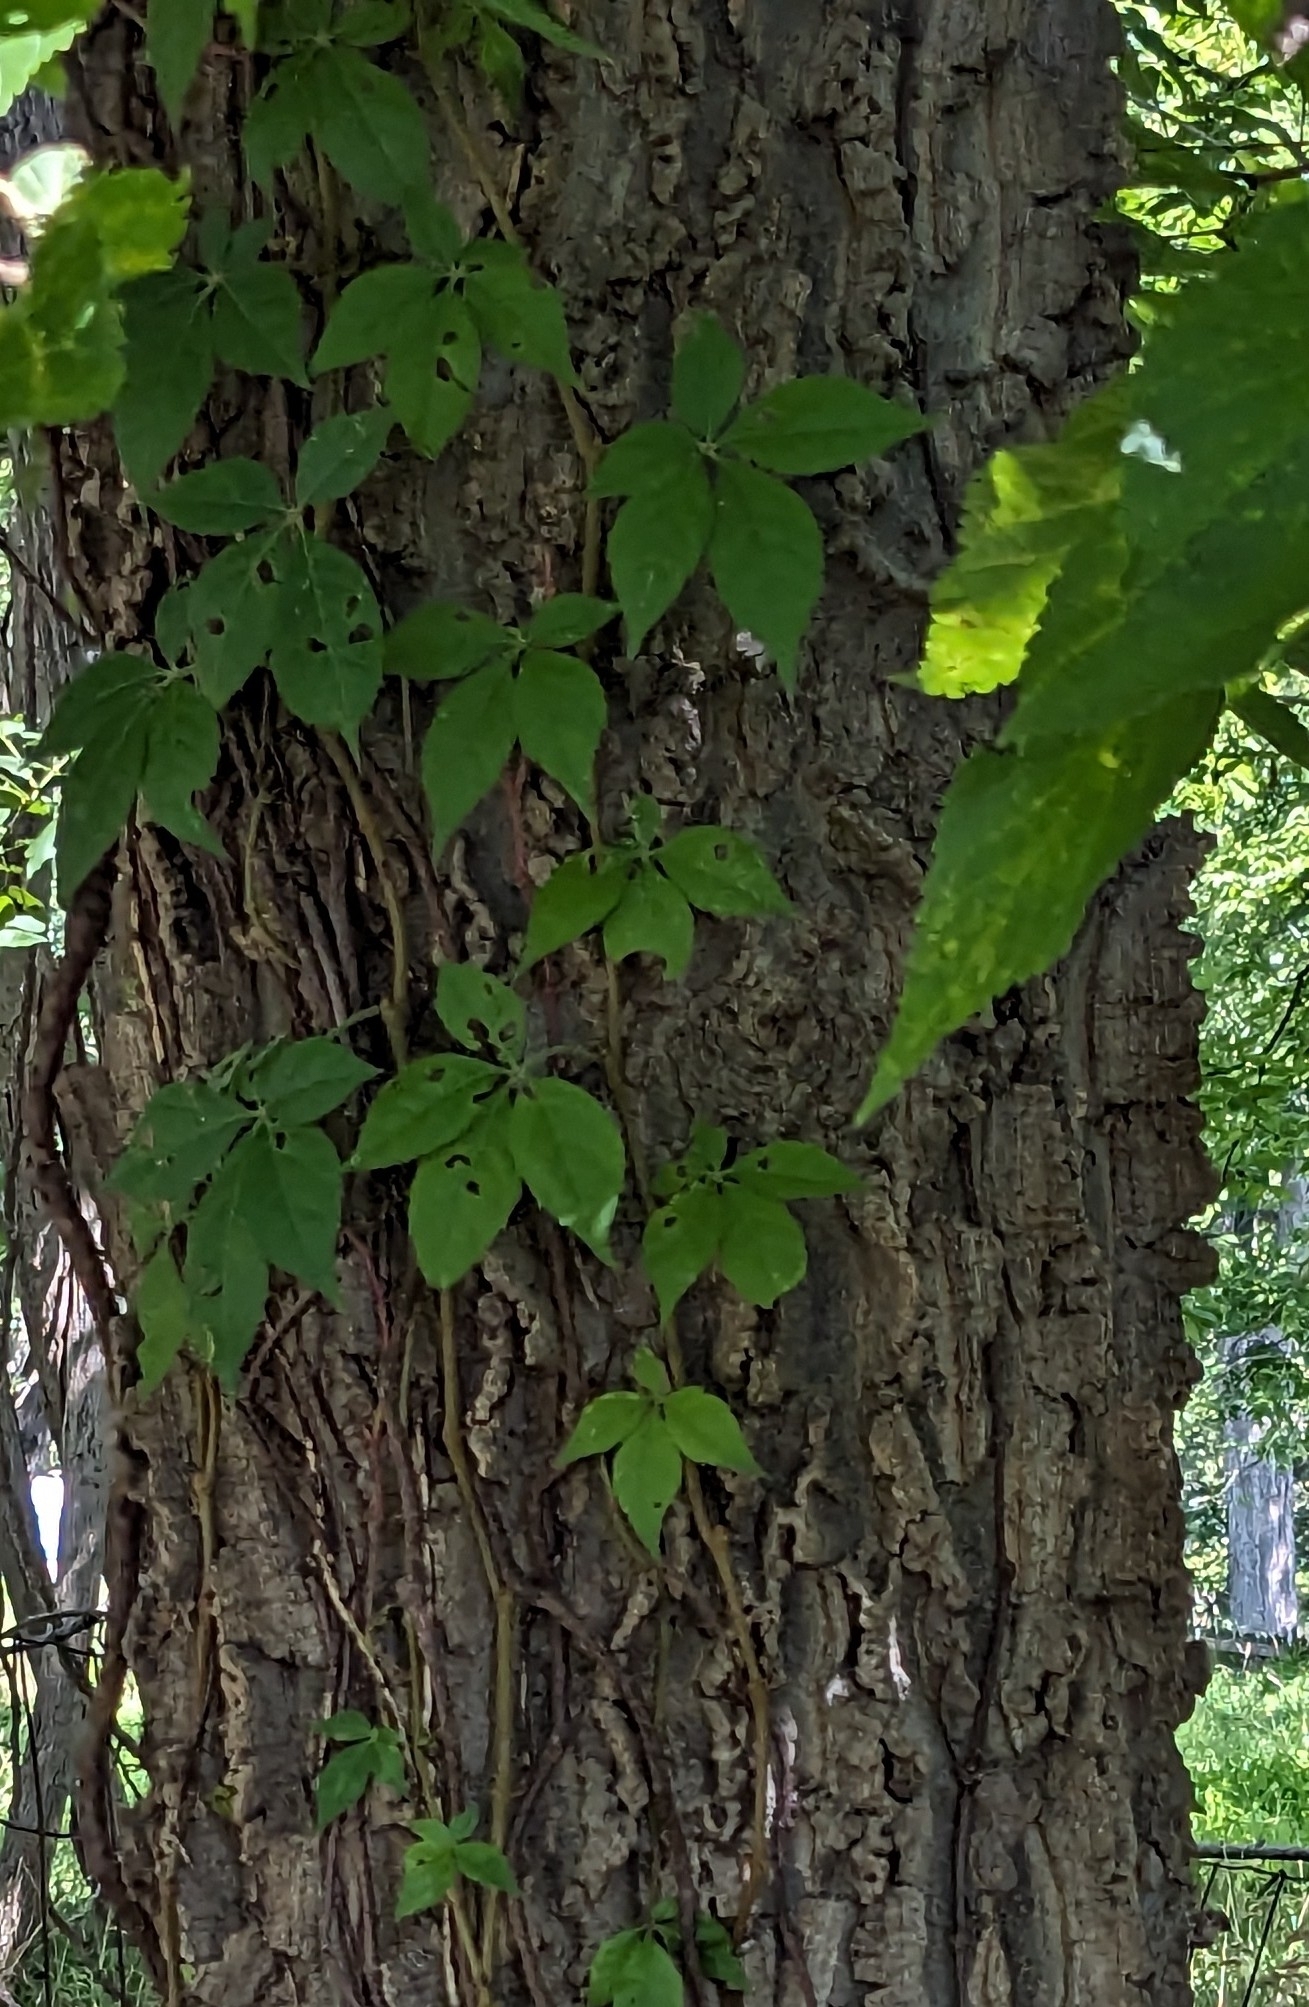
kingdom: Plantae
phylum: Tracheophyta
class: Magnoliopsida
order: Vitales
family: Vitaceae
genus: Parthenocissus
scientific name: Parthenocissus quinquefolia
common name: Virginia-creeper
